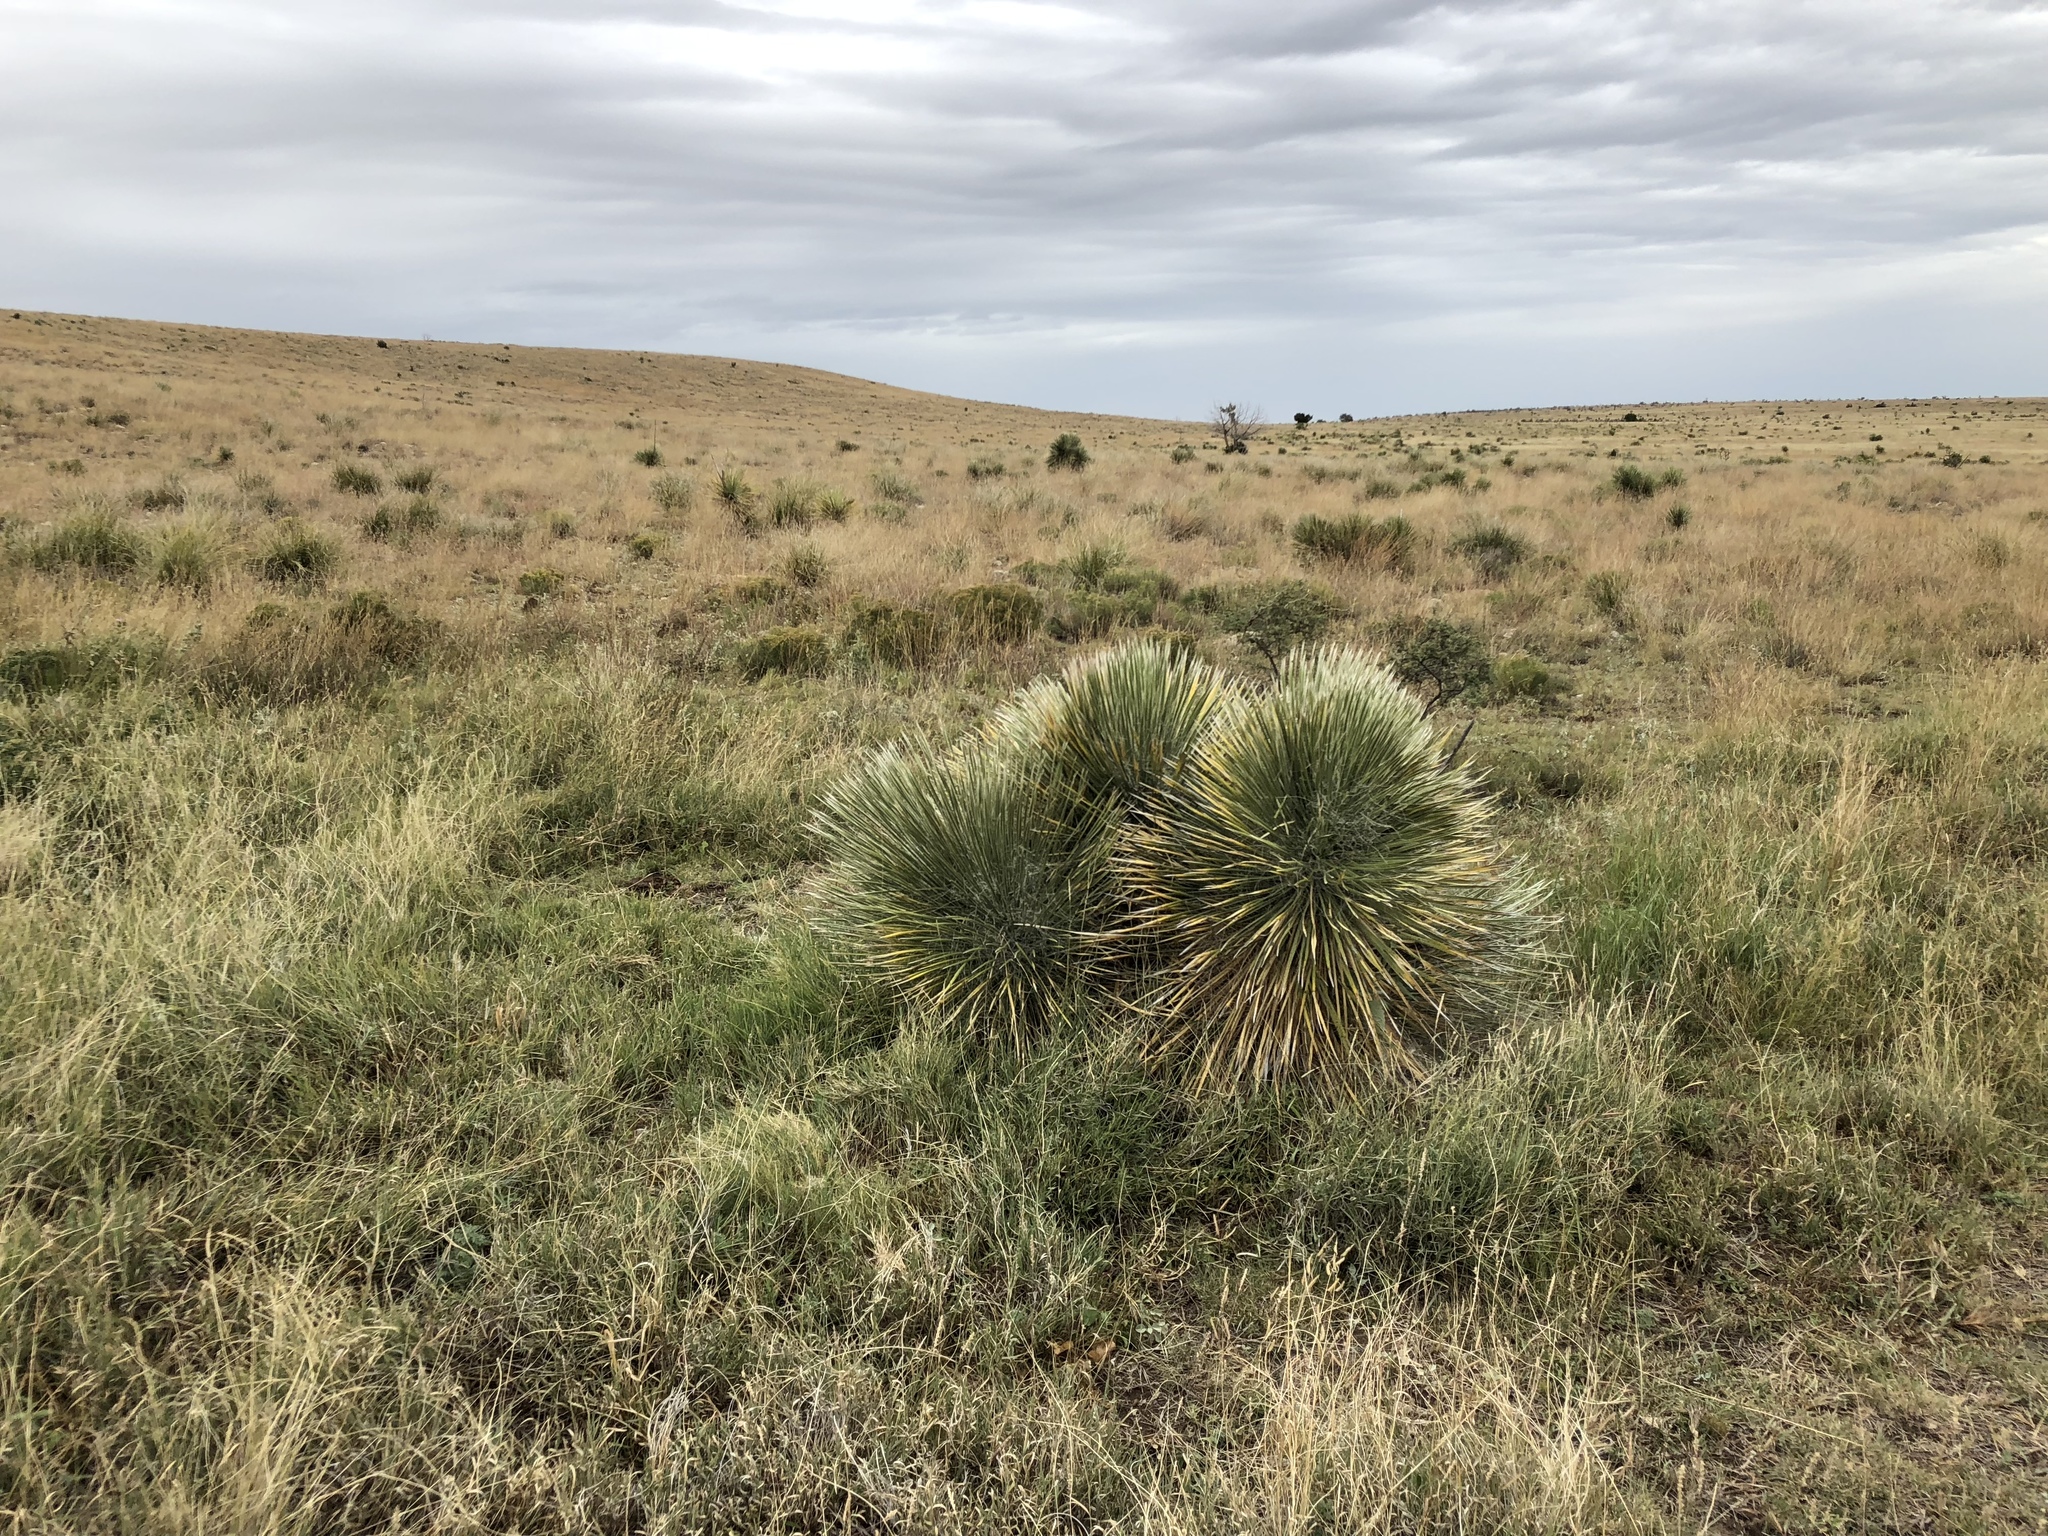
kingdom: Plantae
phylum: Tracheophyta
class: Liliopsida
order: Asparagales
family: Asparagaceae
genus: Yucca
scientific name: Yucca elata
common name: Palmella
